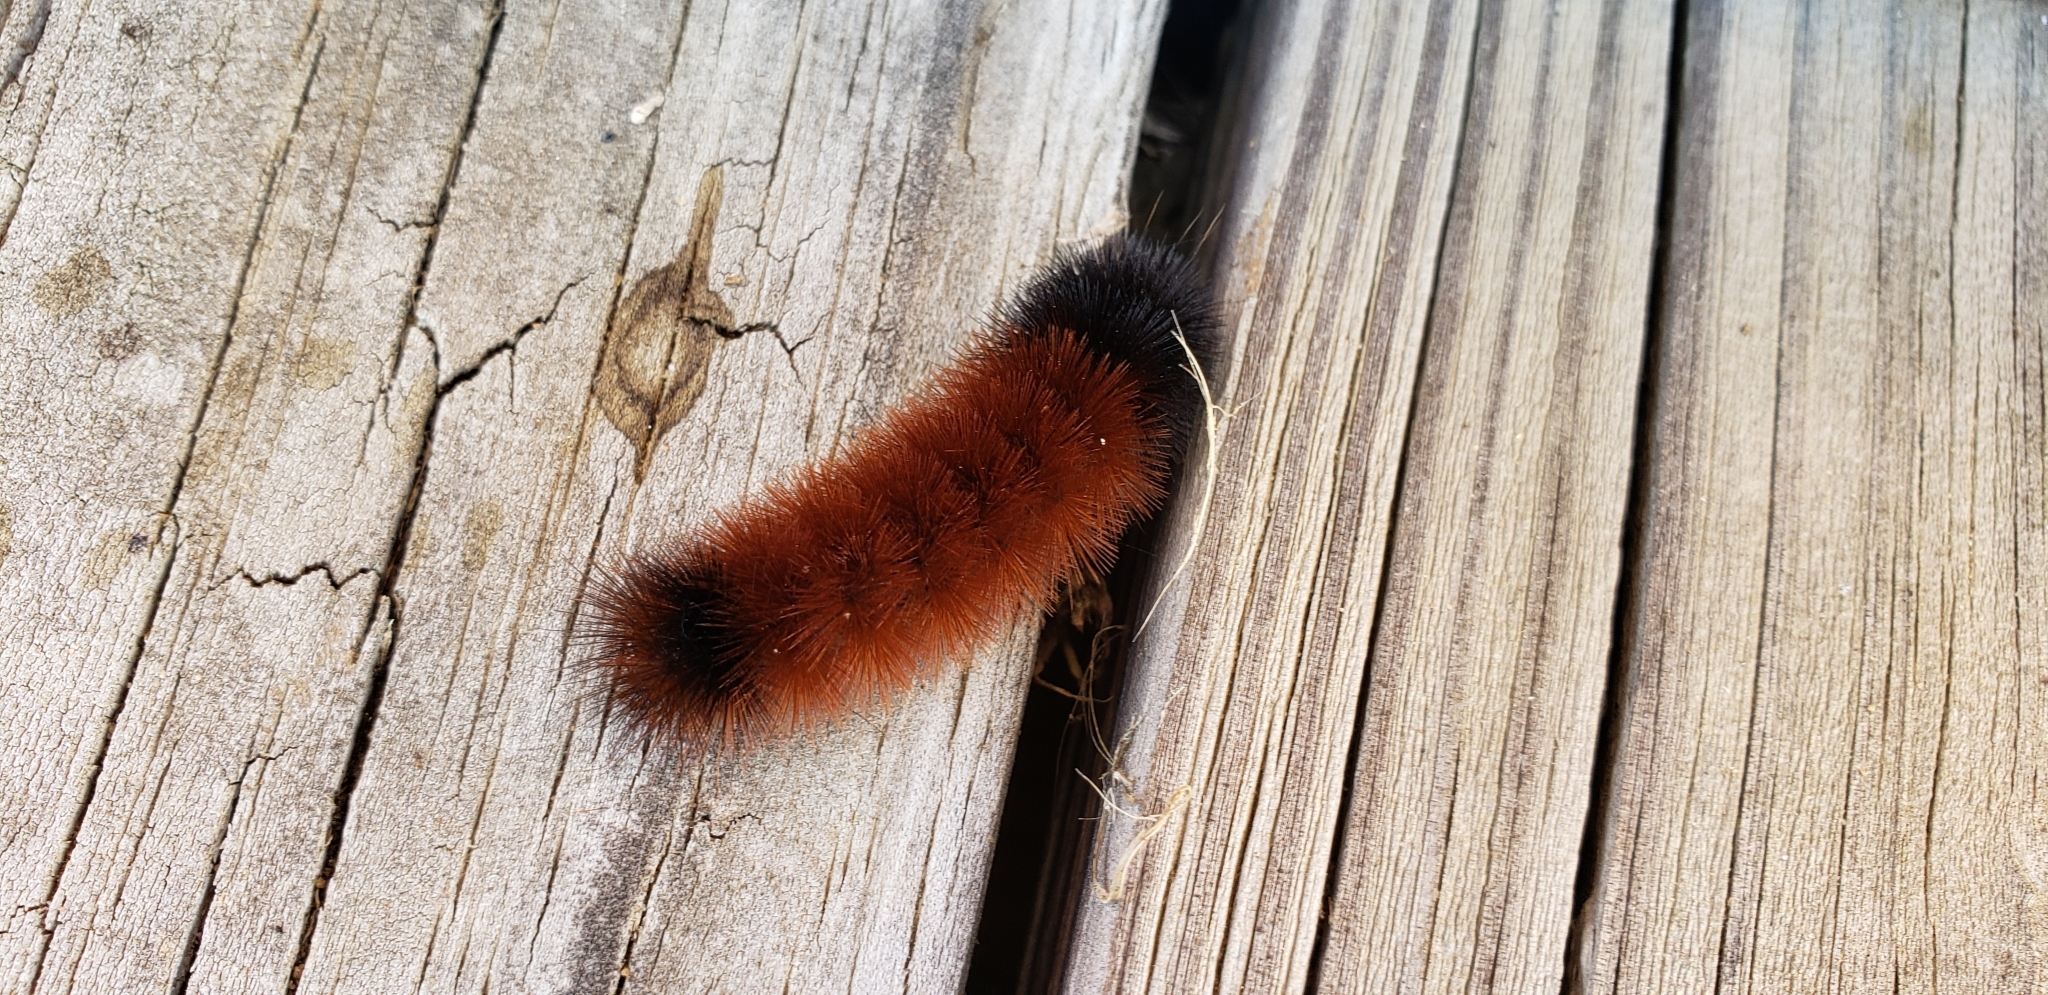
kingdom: Animalia
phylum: Arthropoda
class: Insecta
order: Lepidoptera
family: Erebidae
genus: Pyrrharctia
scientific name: Pyrrharctia isabella
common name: Isabella tiger moth
